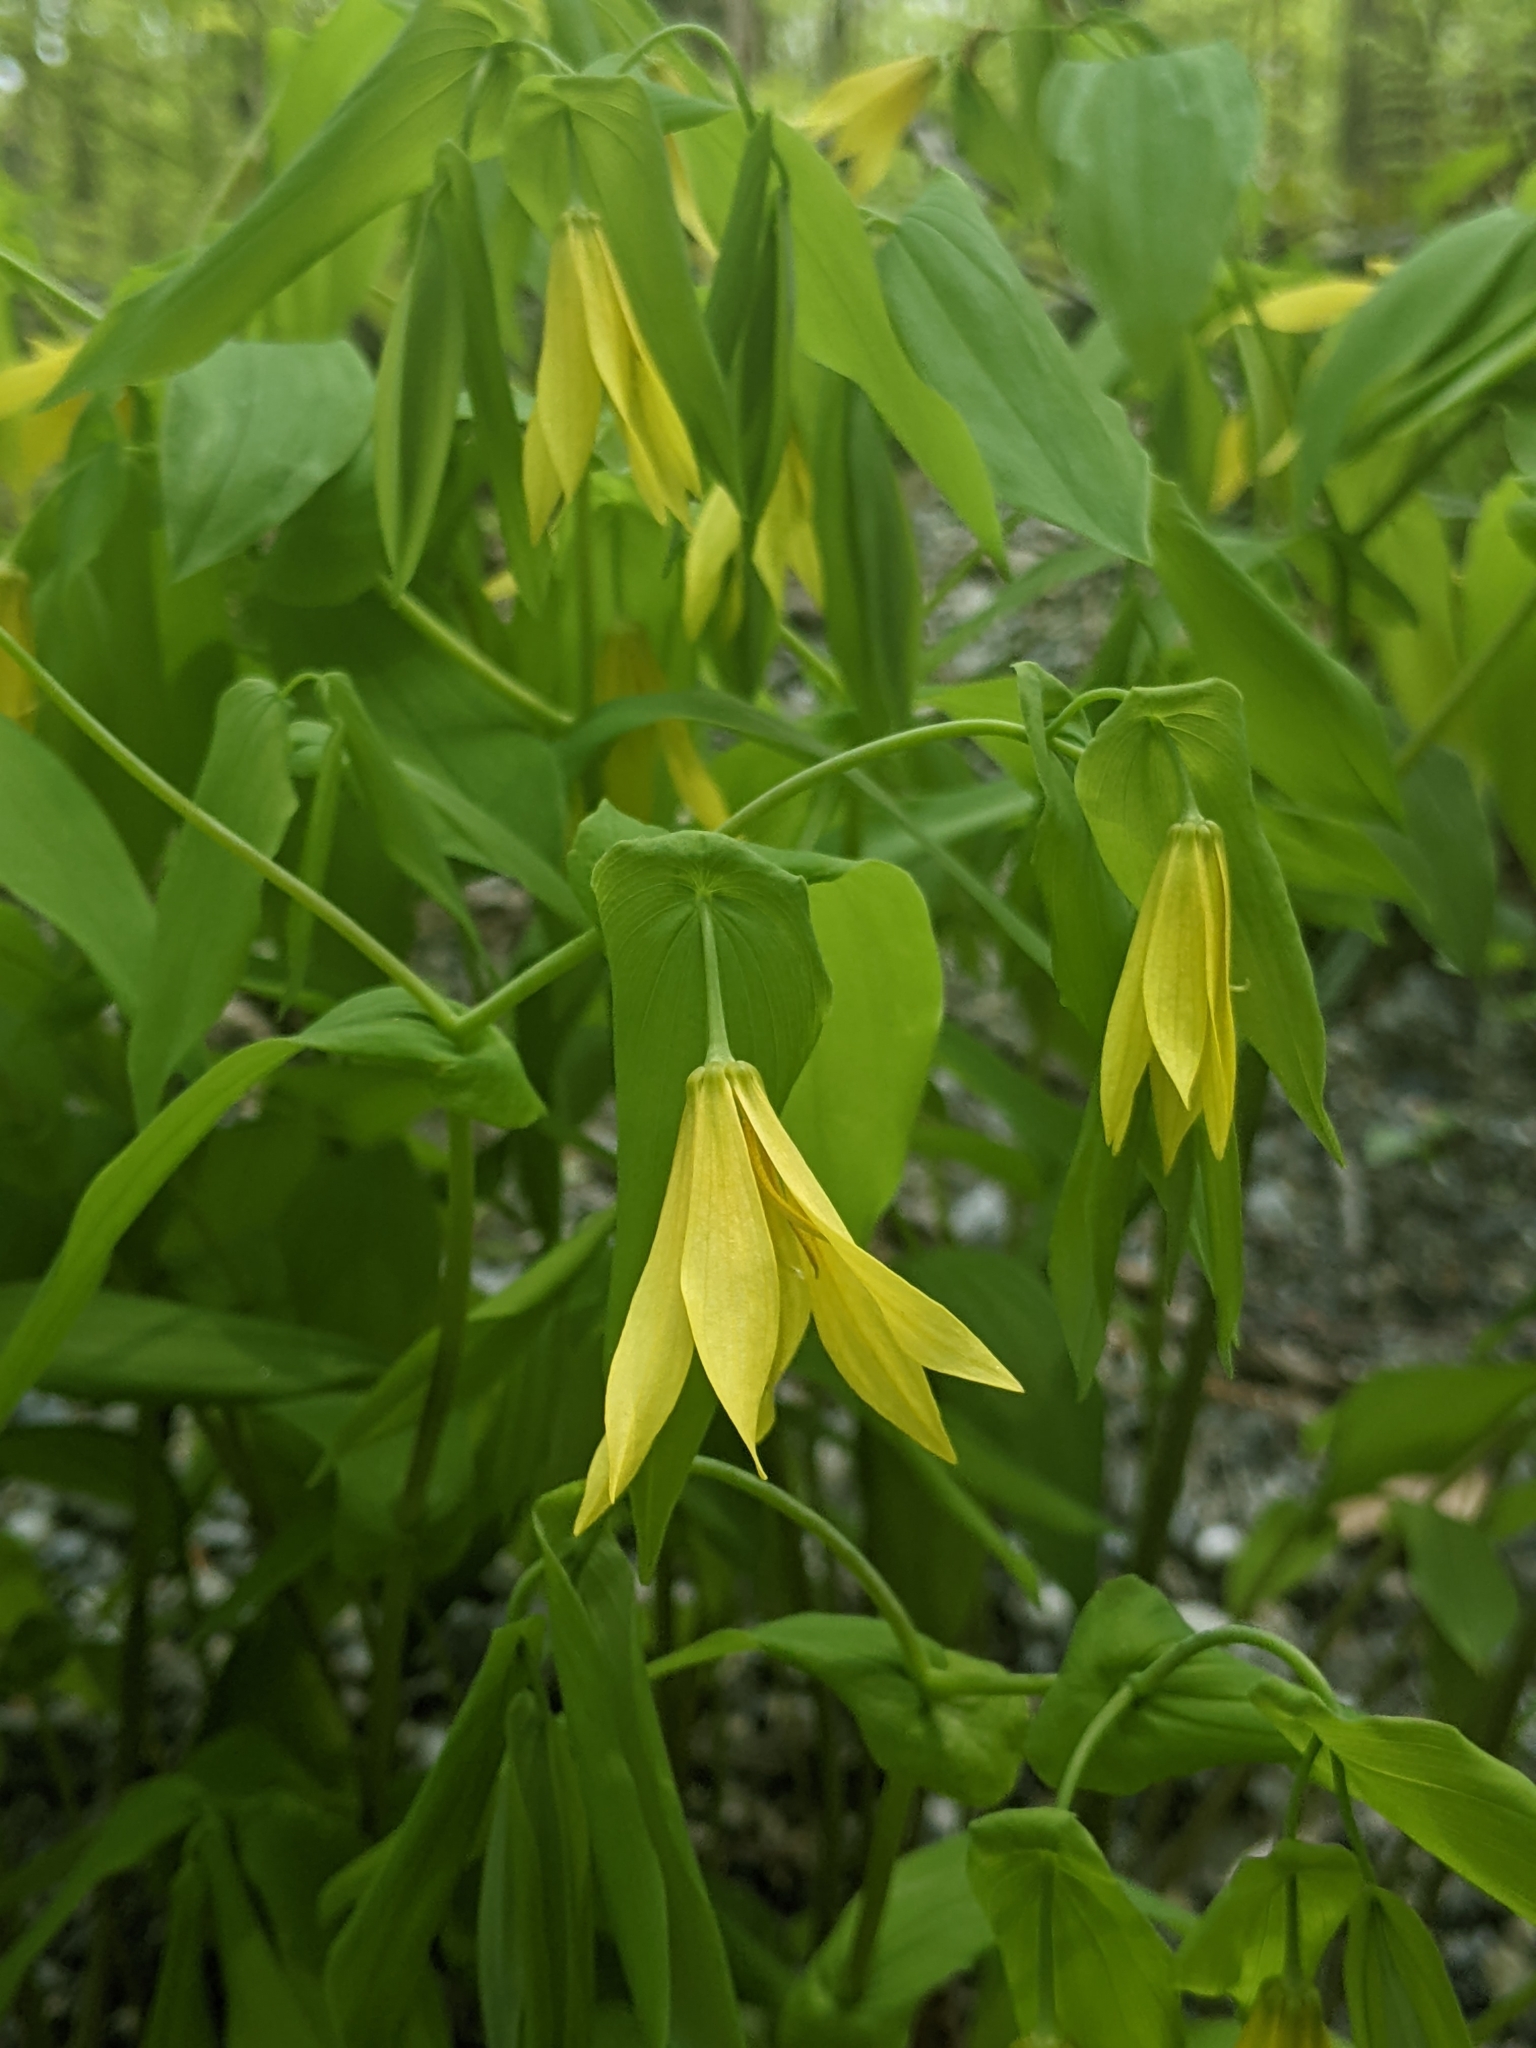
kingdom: Plantae
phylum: Tracheophyta
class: Liliopsida
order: Liliales
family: Colchicaceae
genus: Uvularia
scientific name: Uvularia grandiflora
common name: Bellwort
